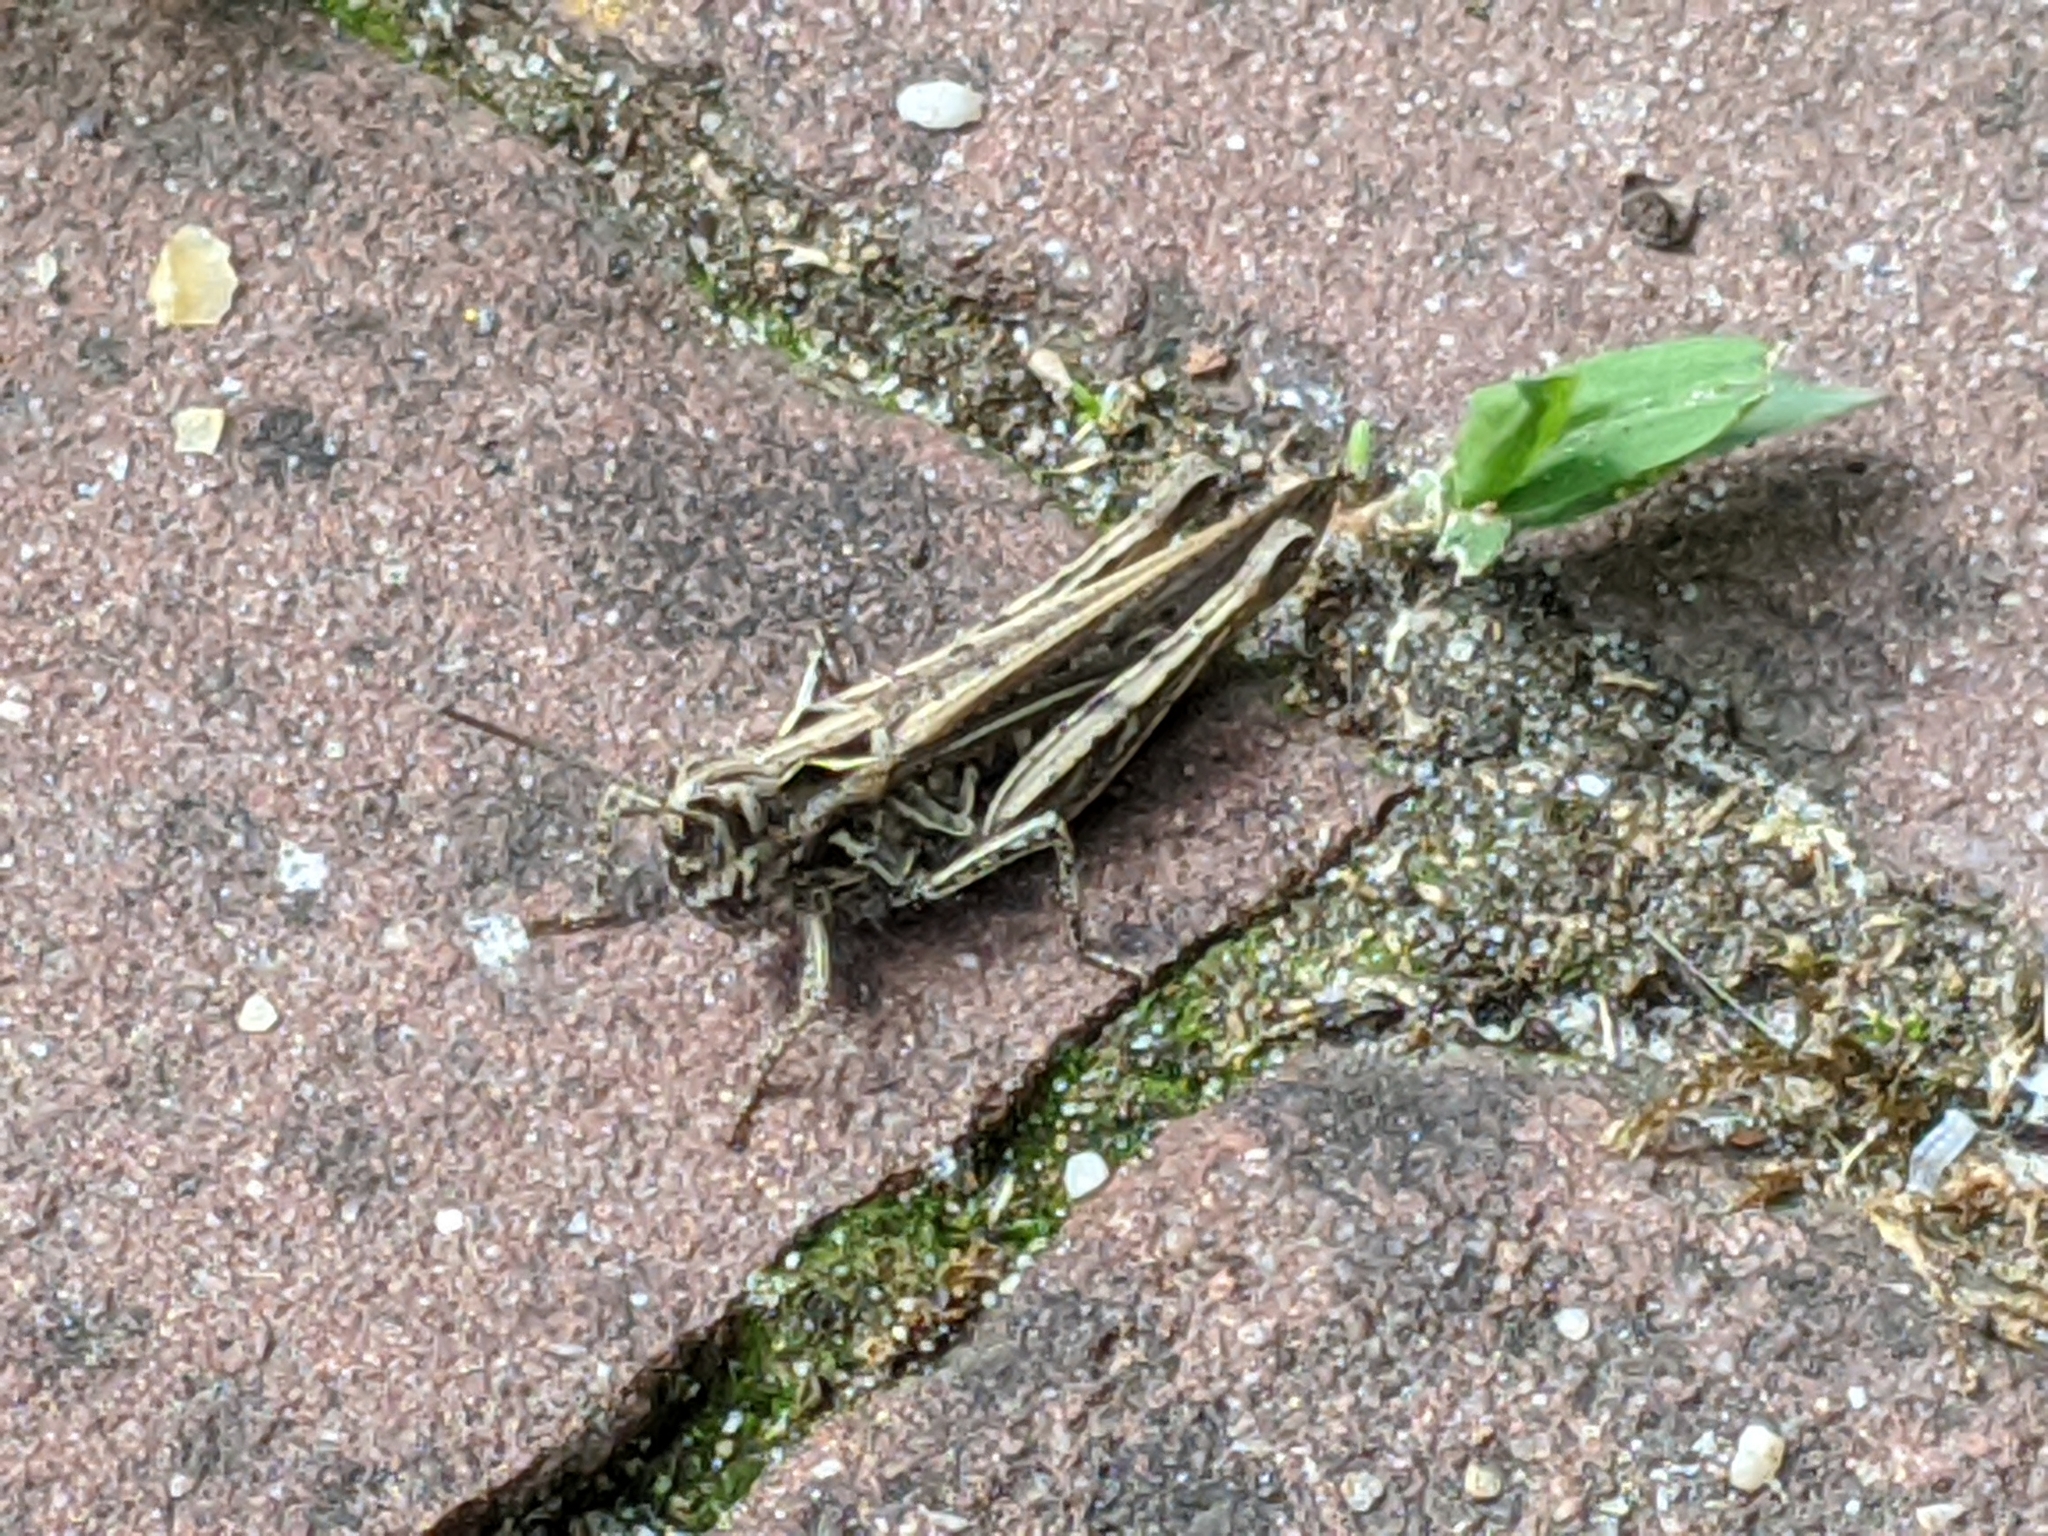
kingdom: Animalia
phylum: Arthropoda
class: Insecta
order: Orthoptera
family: Acrididae
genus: Chorthippus
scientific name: Chorthippus brunneus
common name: Field grasshopper
